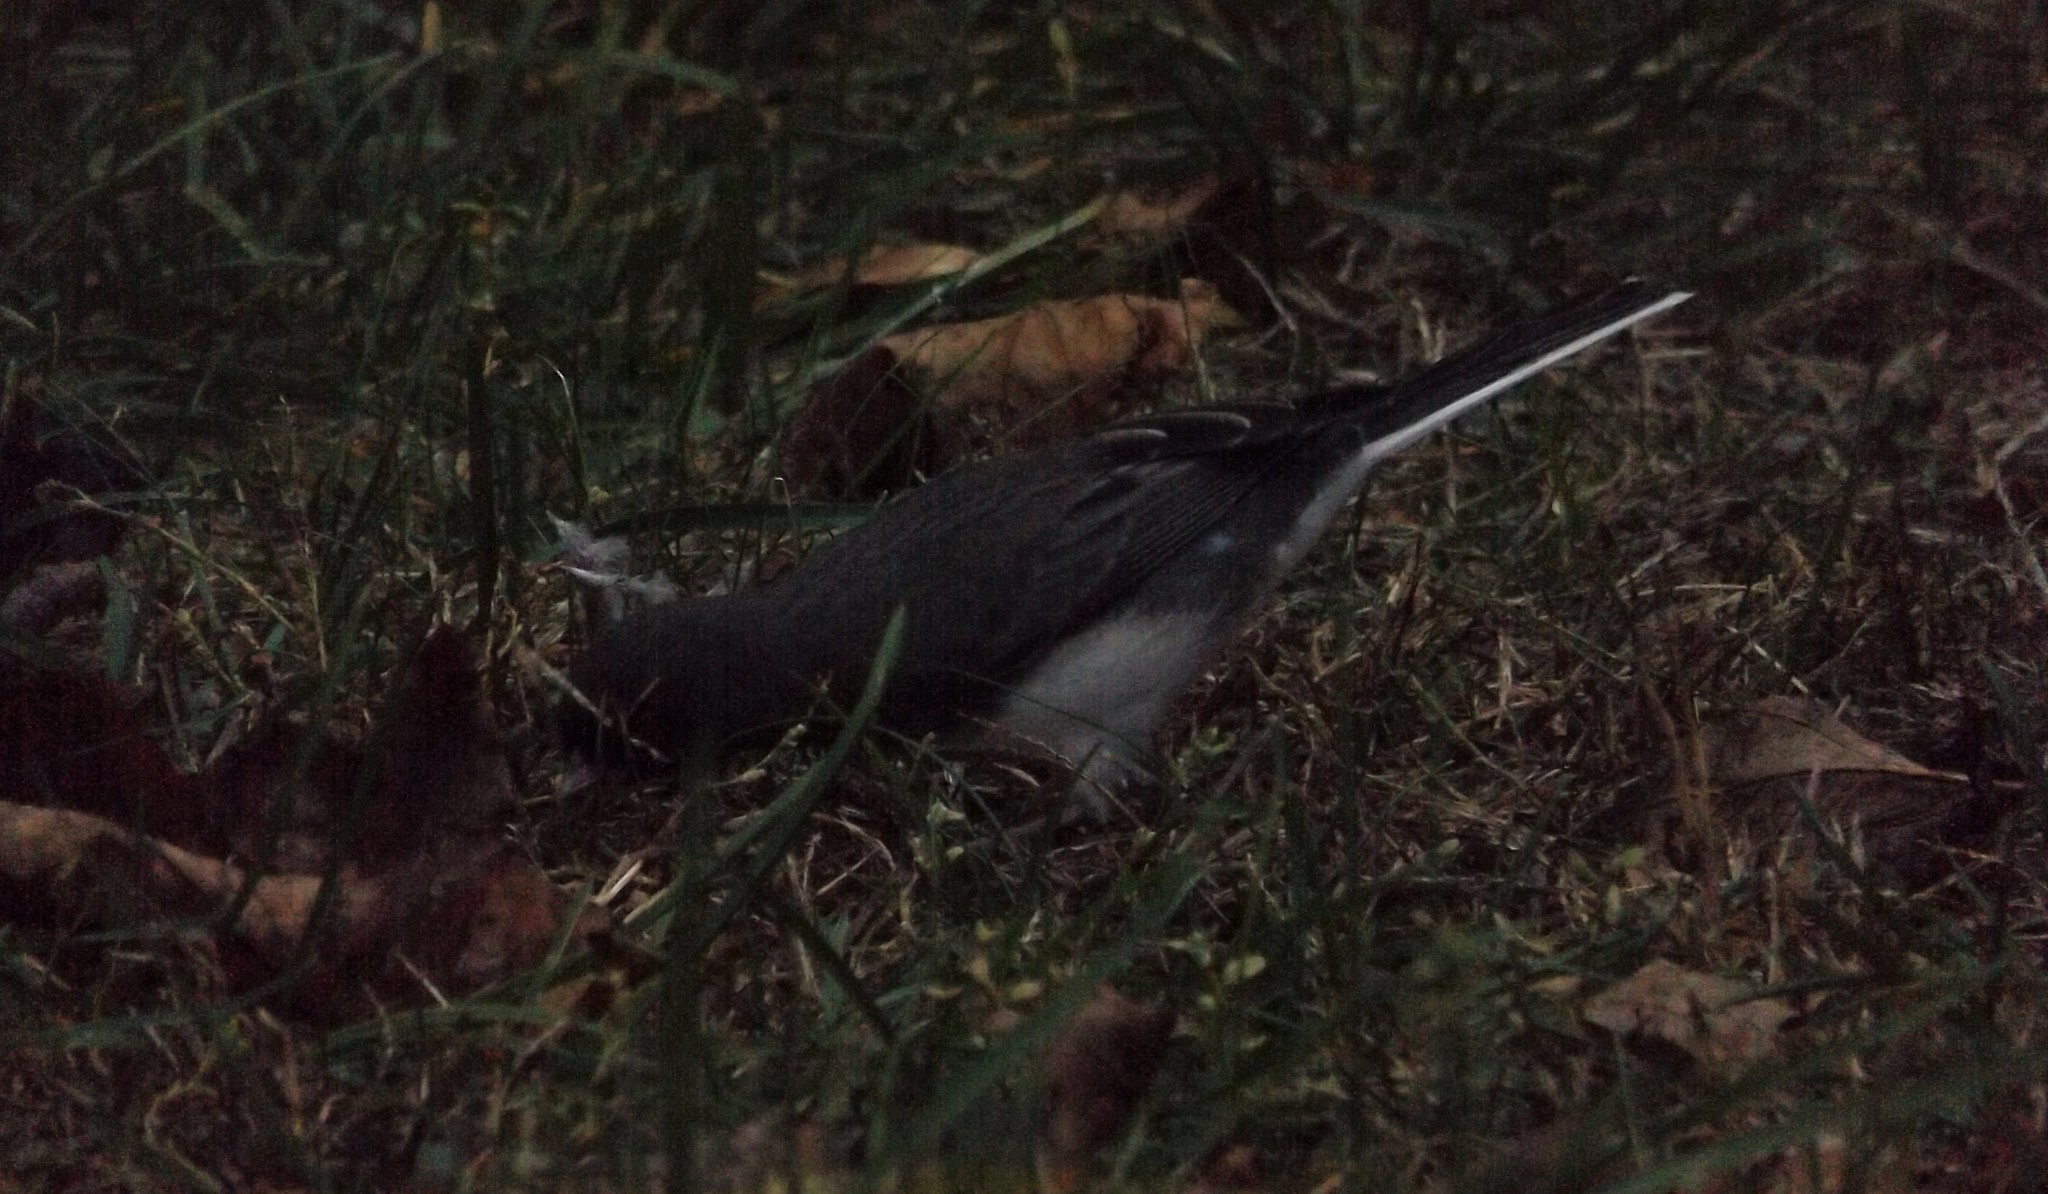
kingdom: Animalia
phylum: Chordata
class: Aves
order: Passeriformes
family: Passerellidae
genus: Junco
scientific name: Junco hyemalis
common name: Dark-eyed junco
